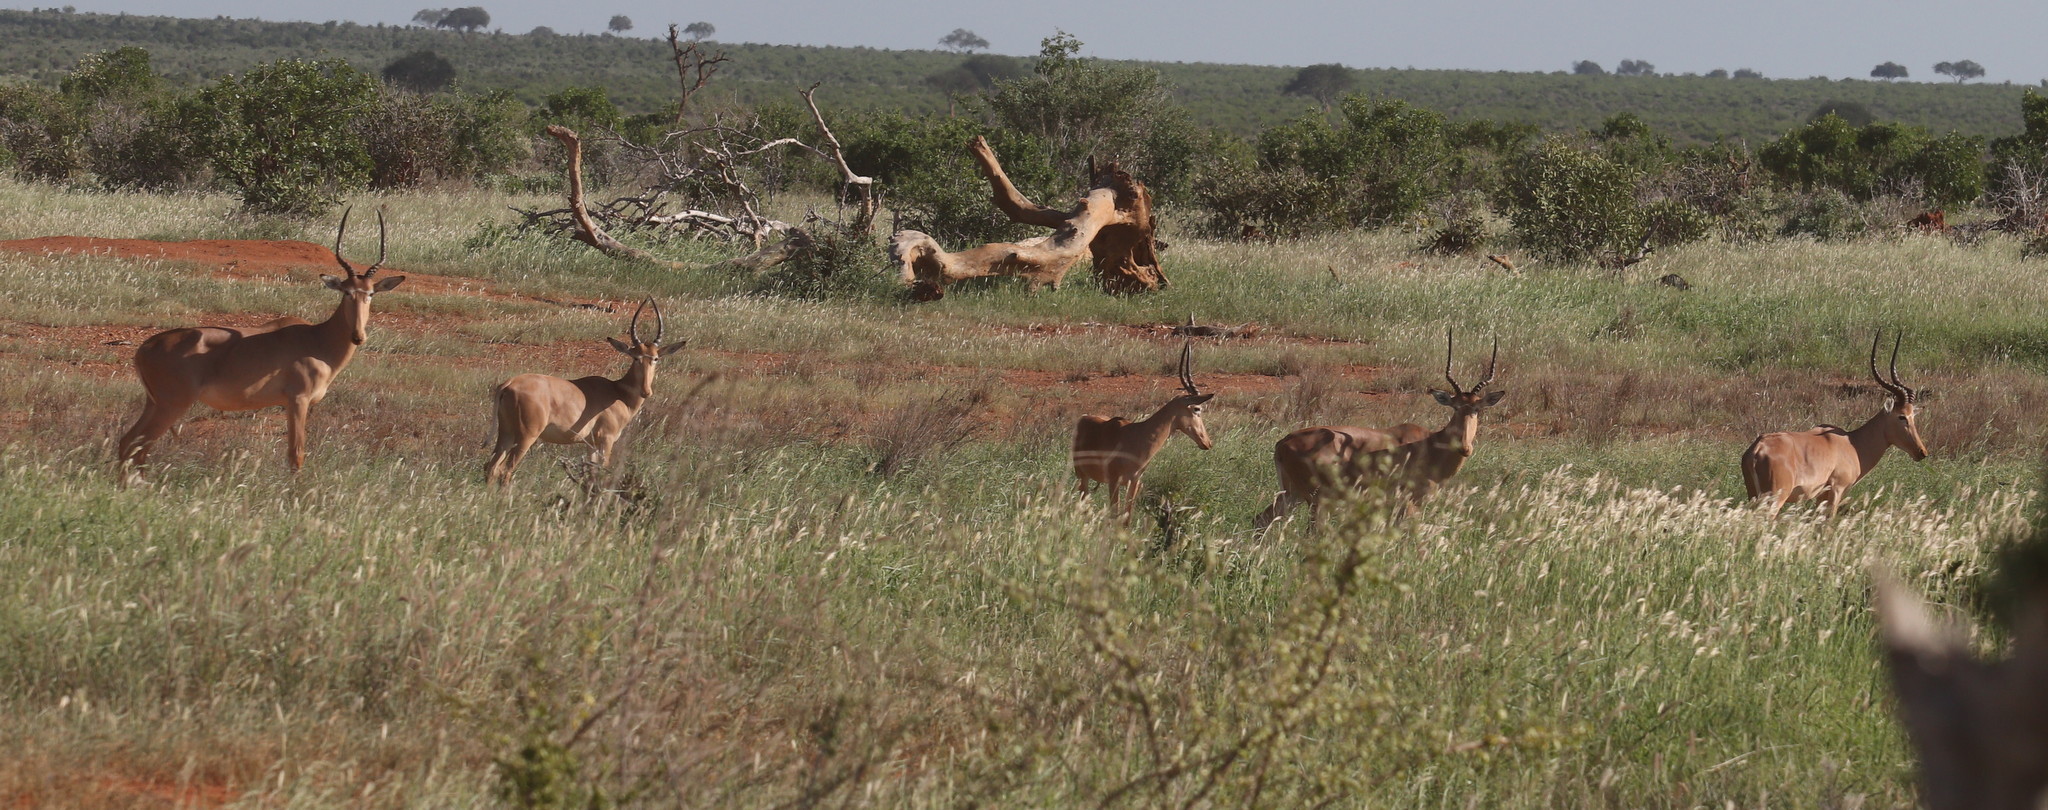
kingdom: Animalia
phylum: Chordata
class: Mammalia
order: Artiodactyla
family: Bovidae
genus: Beatragus
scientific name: Beatragus hunteri
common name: Hunter's hartebeest
